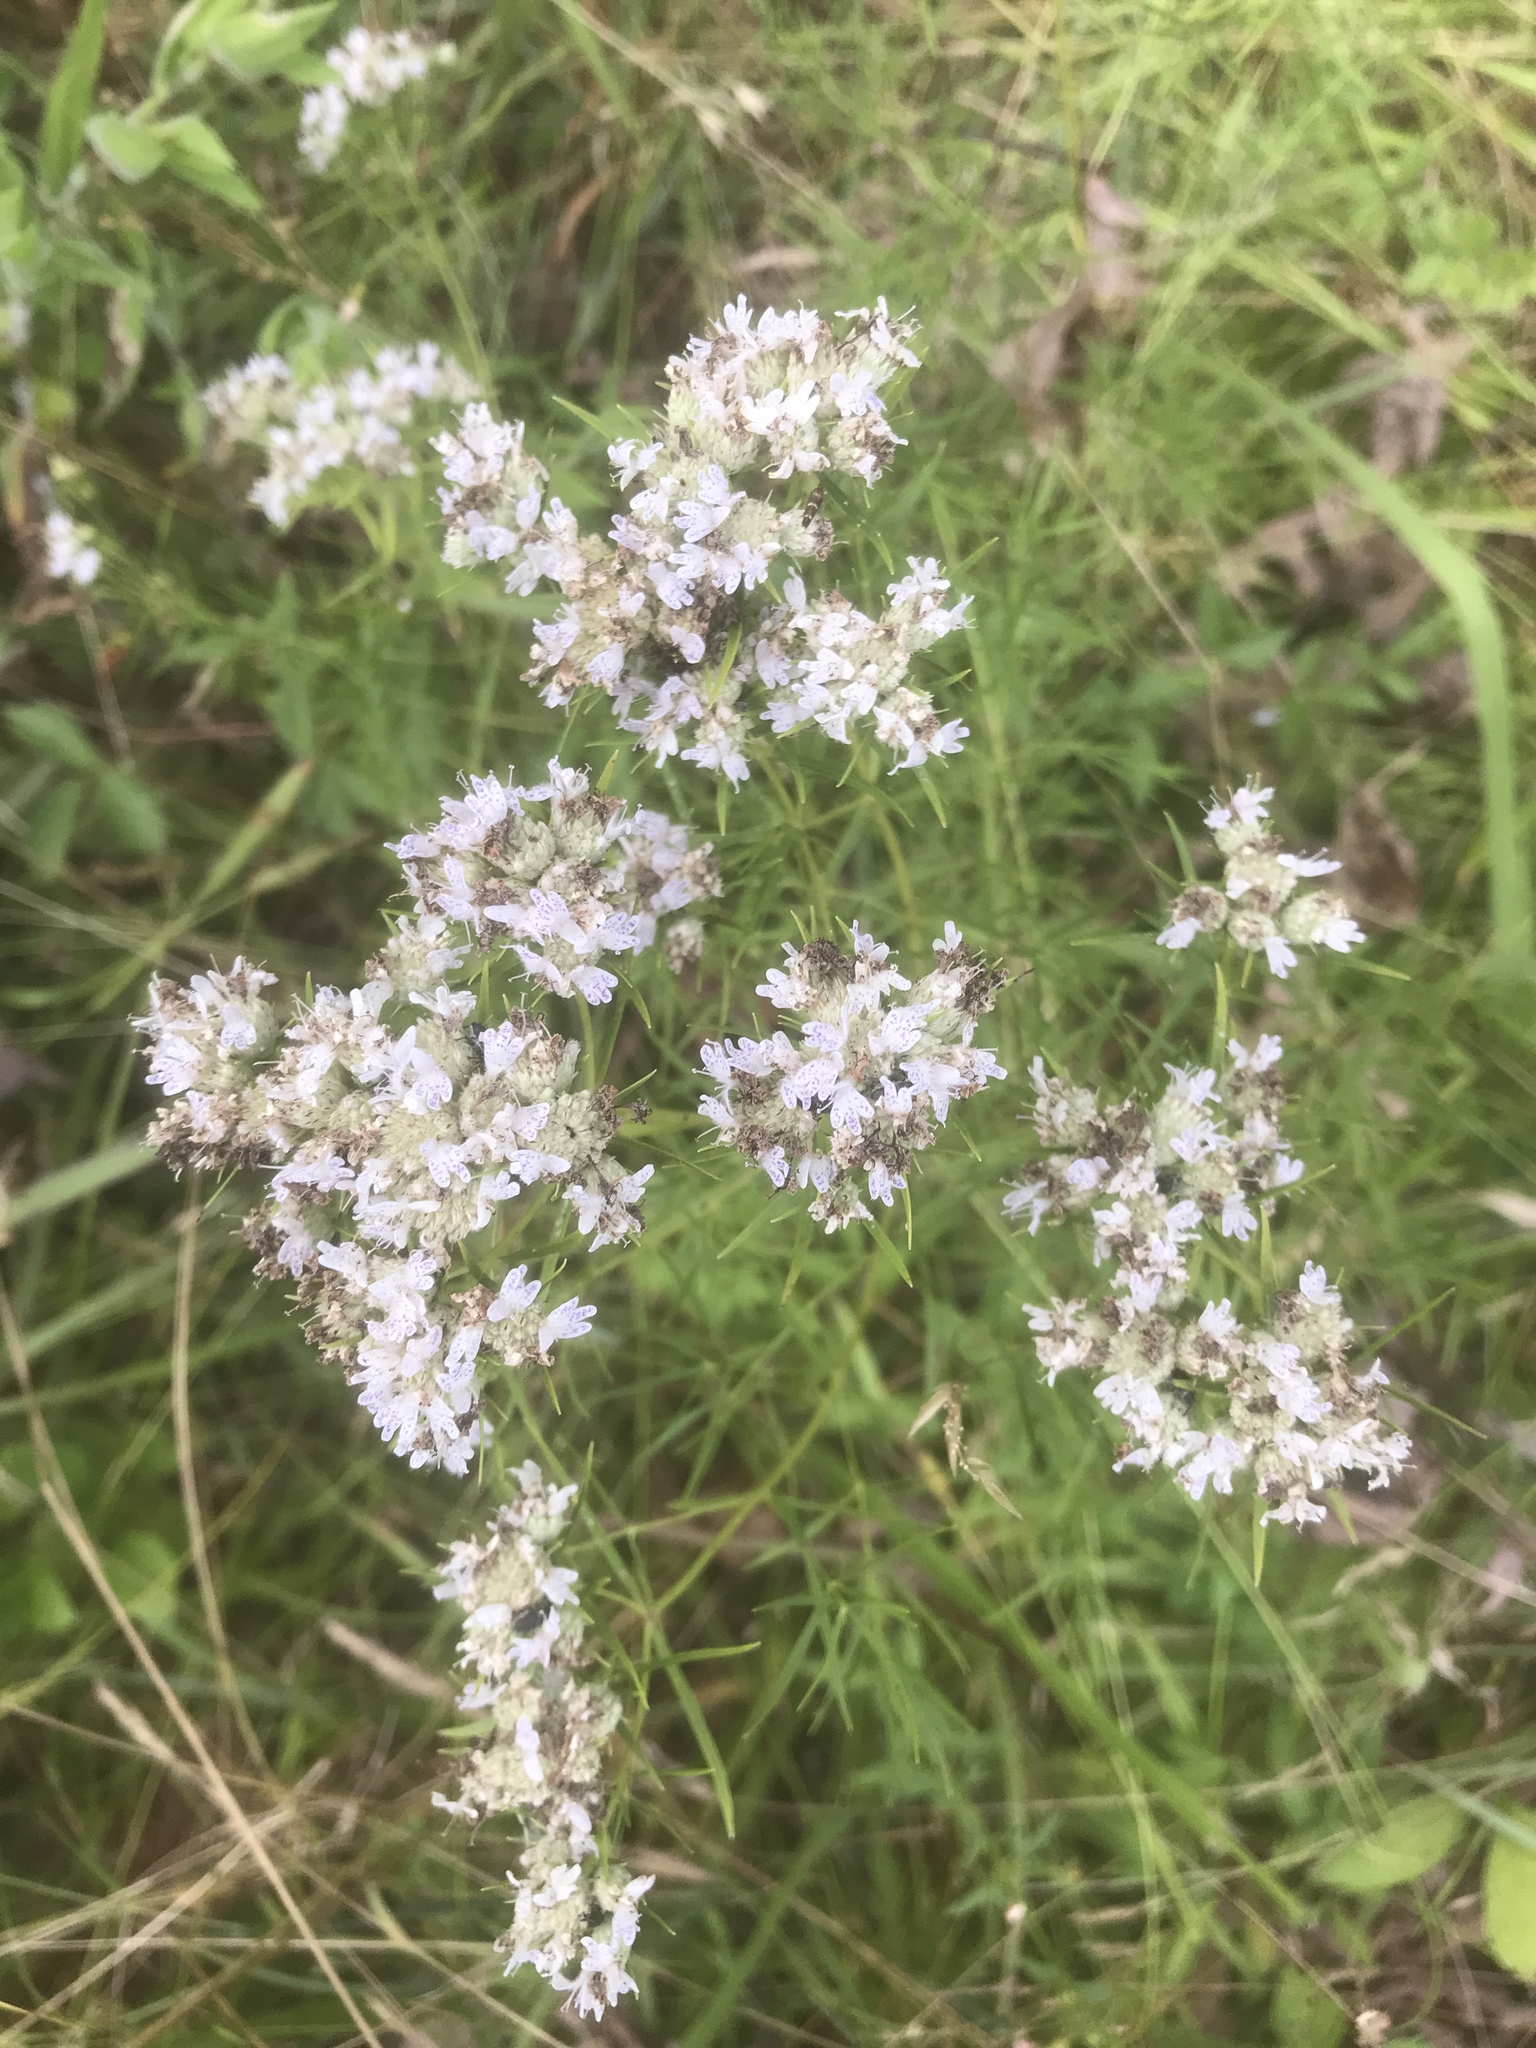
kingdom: Plantae
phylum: Tracheophyta
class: Magnoliopsida
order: Lamiales
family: Lamiaceae
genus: Pycnanthemum
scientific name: Pycnanthemum tenuifolium
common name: Narrow-leaf mountain-mint
